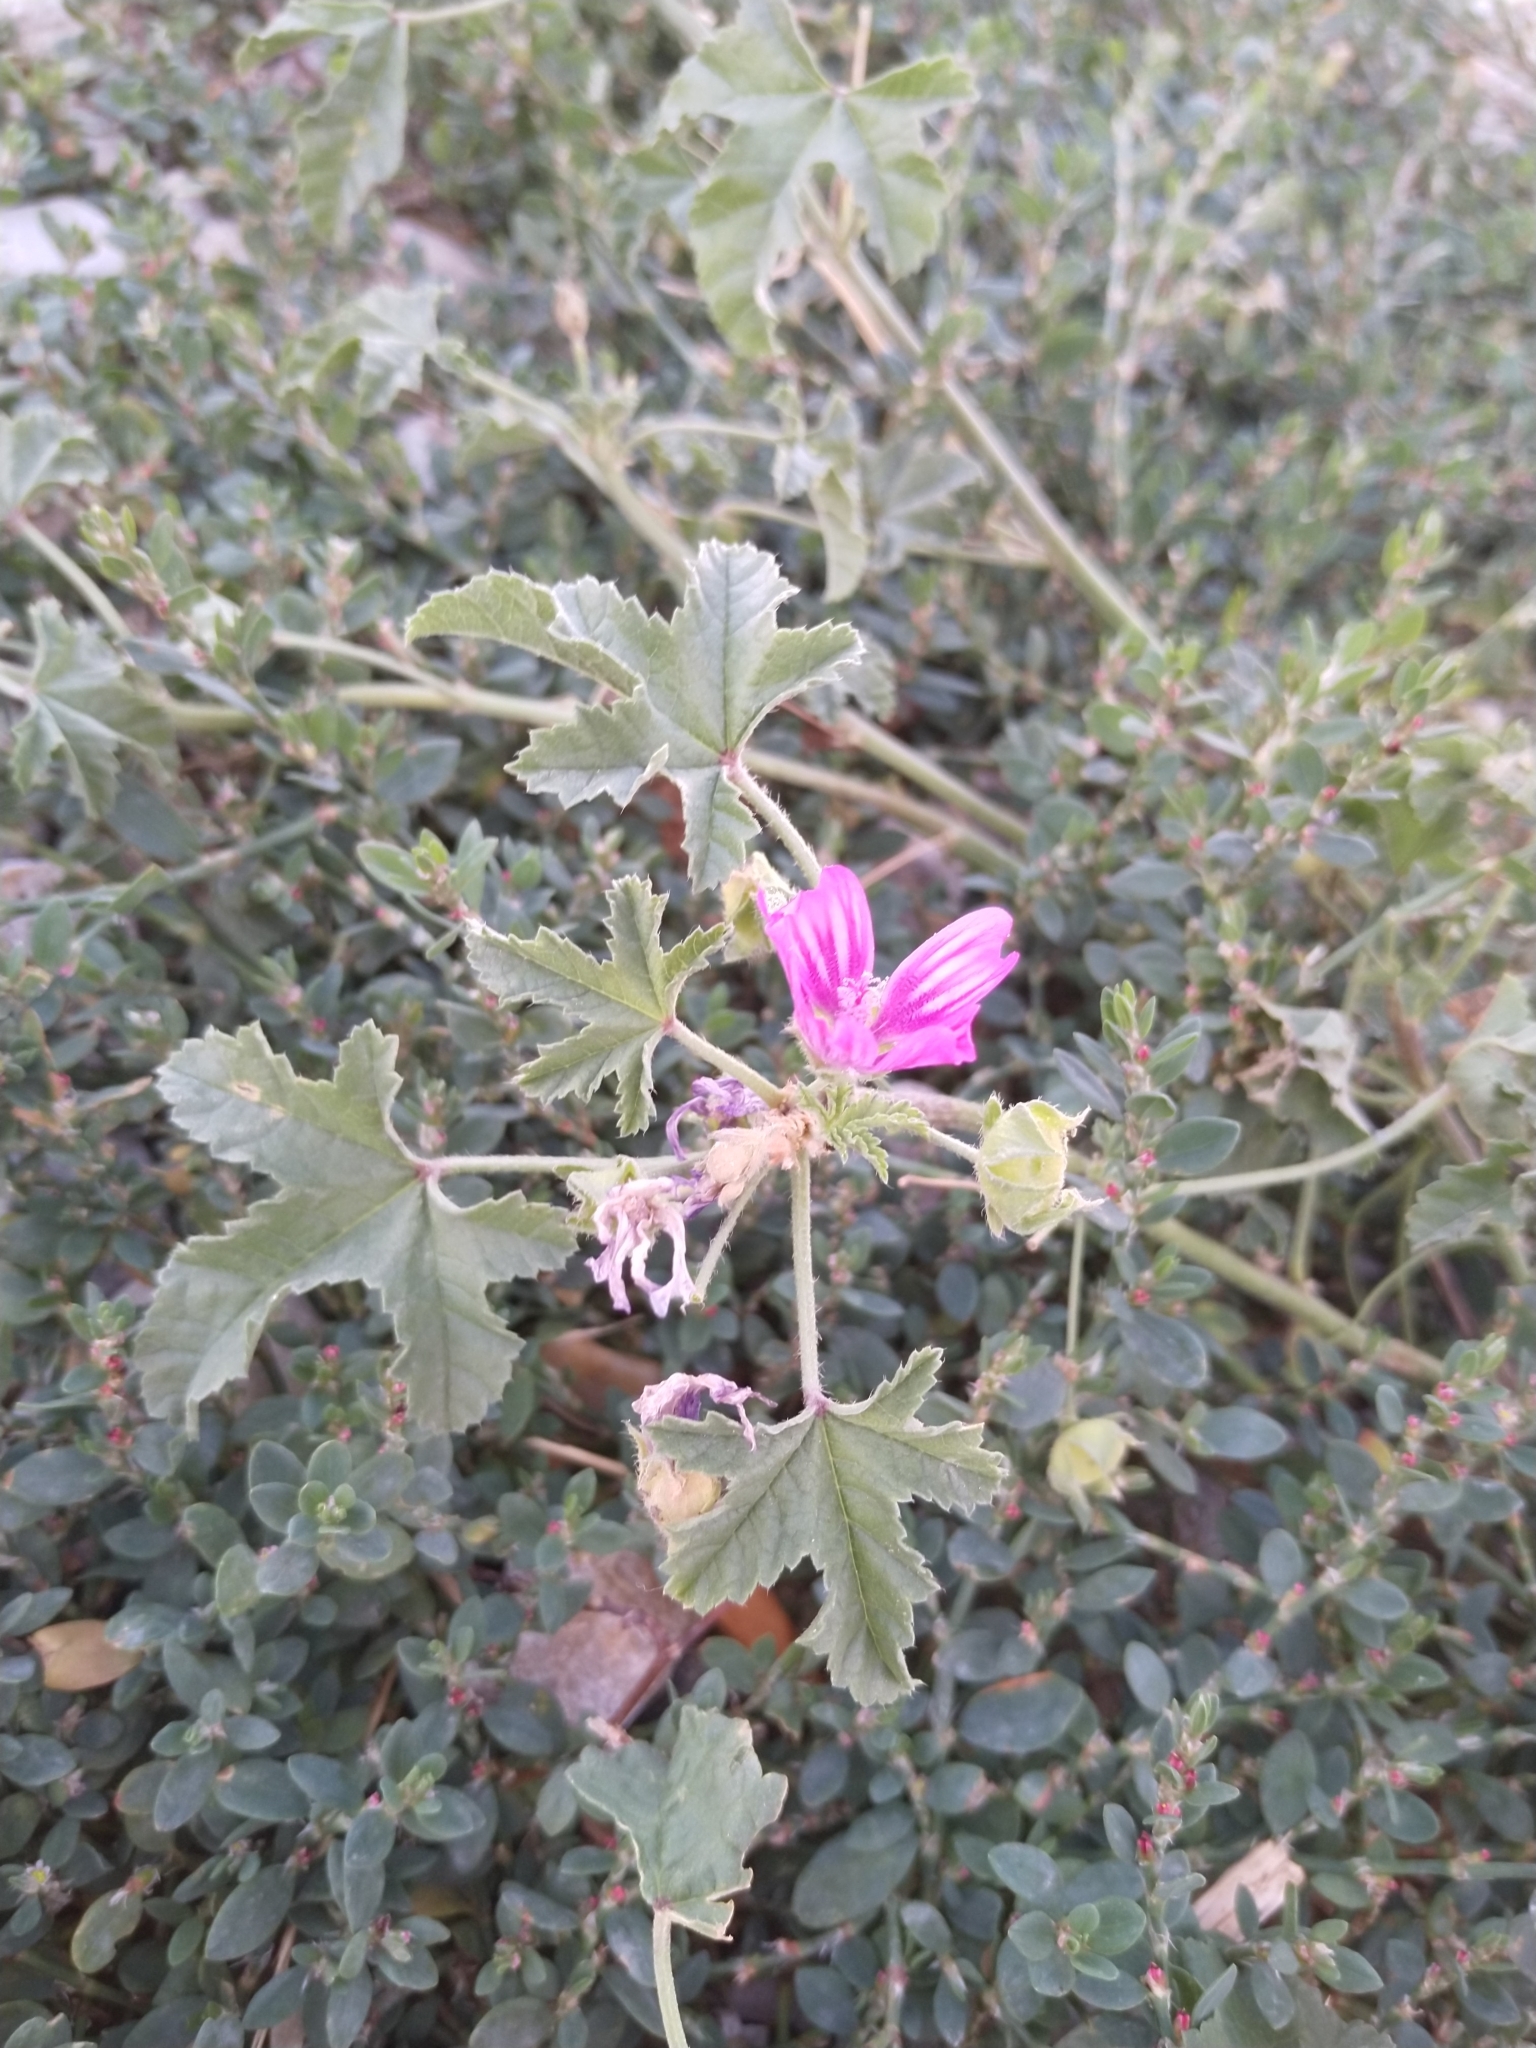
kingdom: Plantae
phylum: Tracheophyta
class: Magnoliopsida
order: Malvales
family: Malvaceae
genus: Malva
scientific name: Malva sylvestris
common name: Common mallow
